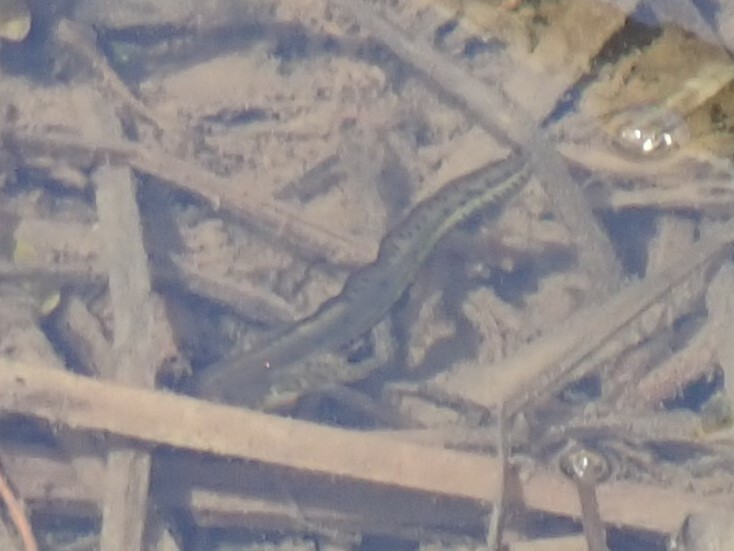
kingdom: Animalia
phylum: Chordata
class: Amphibia
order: Caudata
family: Salamandridae
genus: Notophthalmus
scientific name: Notophthalmus viridescens
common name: Eastern newt
